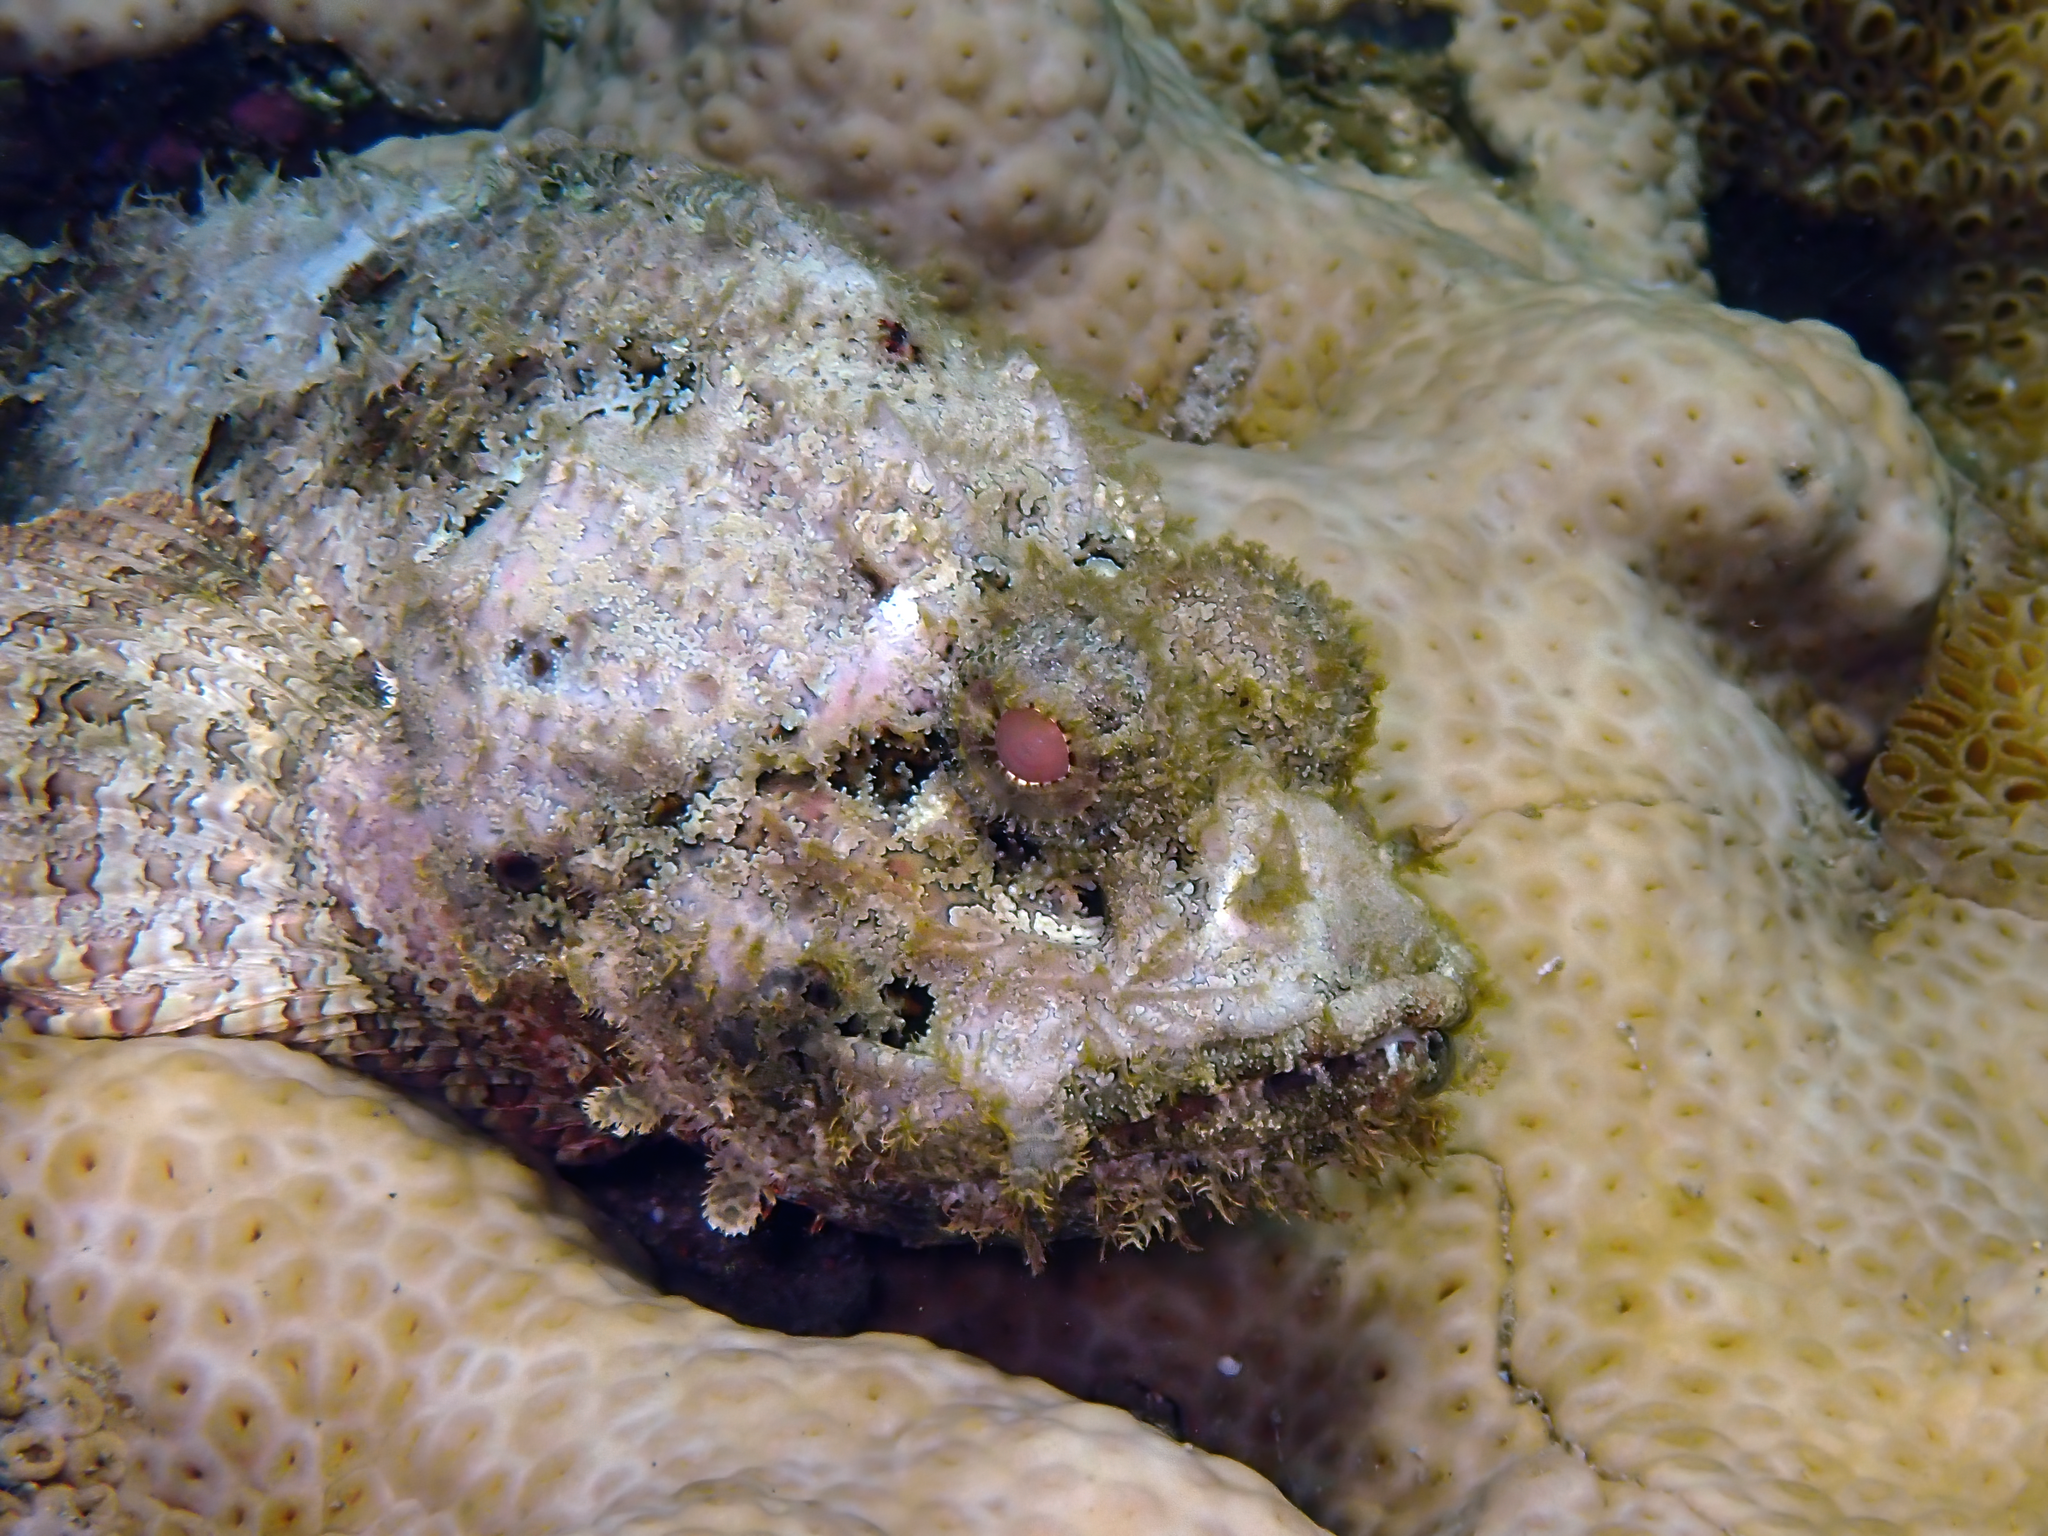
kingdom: Animalia
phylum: Chordata
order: Scorpaeniformes
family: Scorpaenidae
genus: Scorpaena
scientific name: Scorpaena plumieri
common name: Spotted scorpionfish
